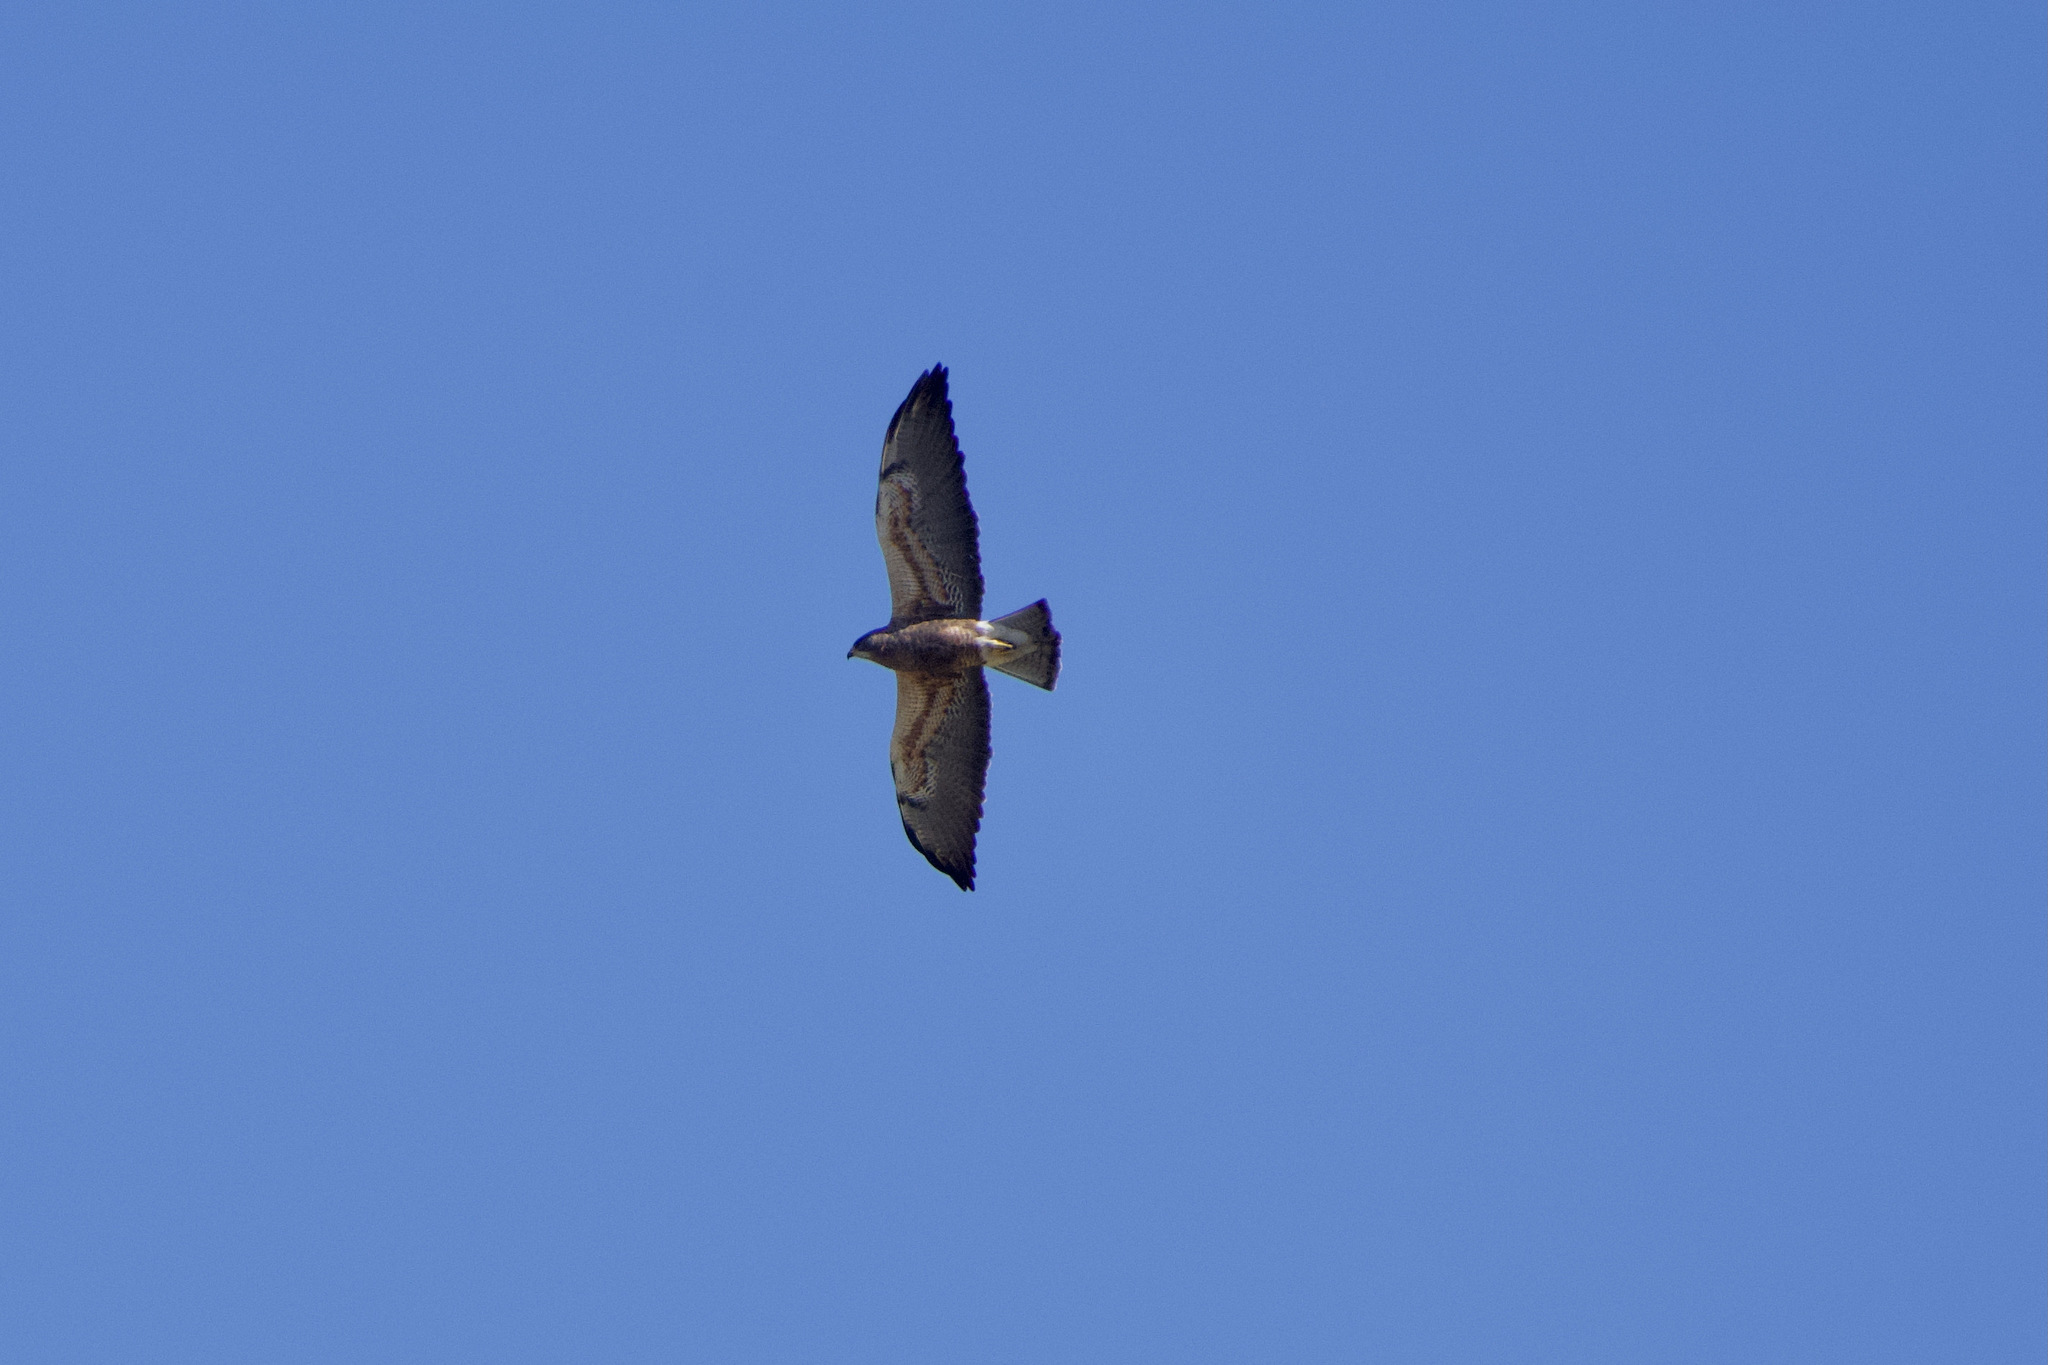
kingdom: Animalia
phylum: Chordata
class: Aves
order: Accipitriformes
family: Accipitridae
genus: Buteo
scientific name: Buteo swainsoni
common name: Swainson's hawk
